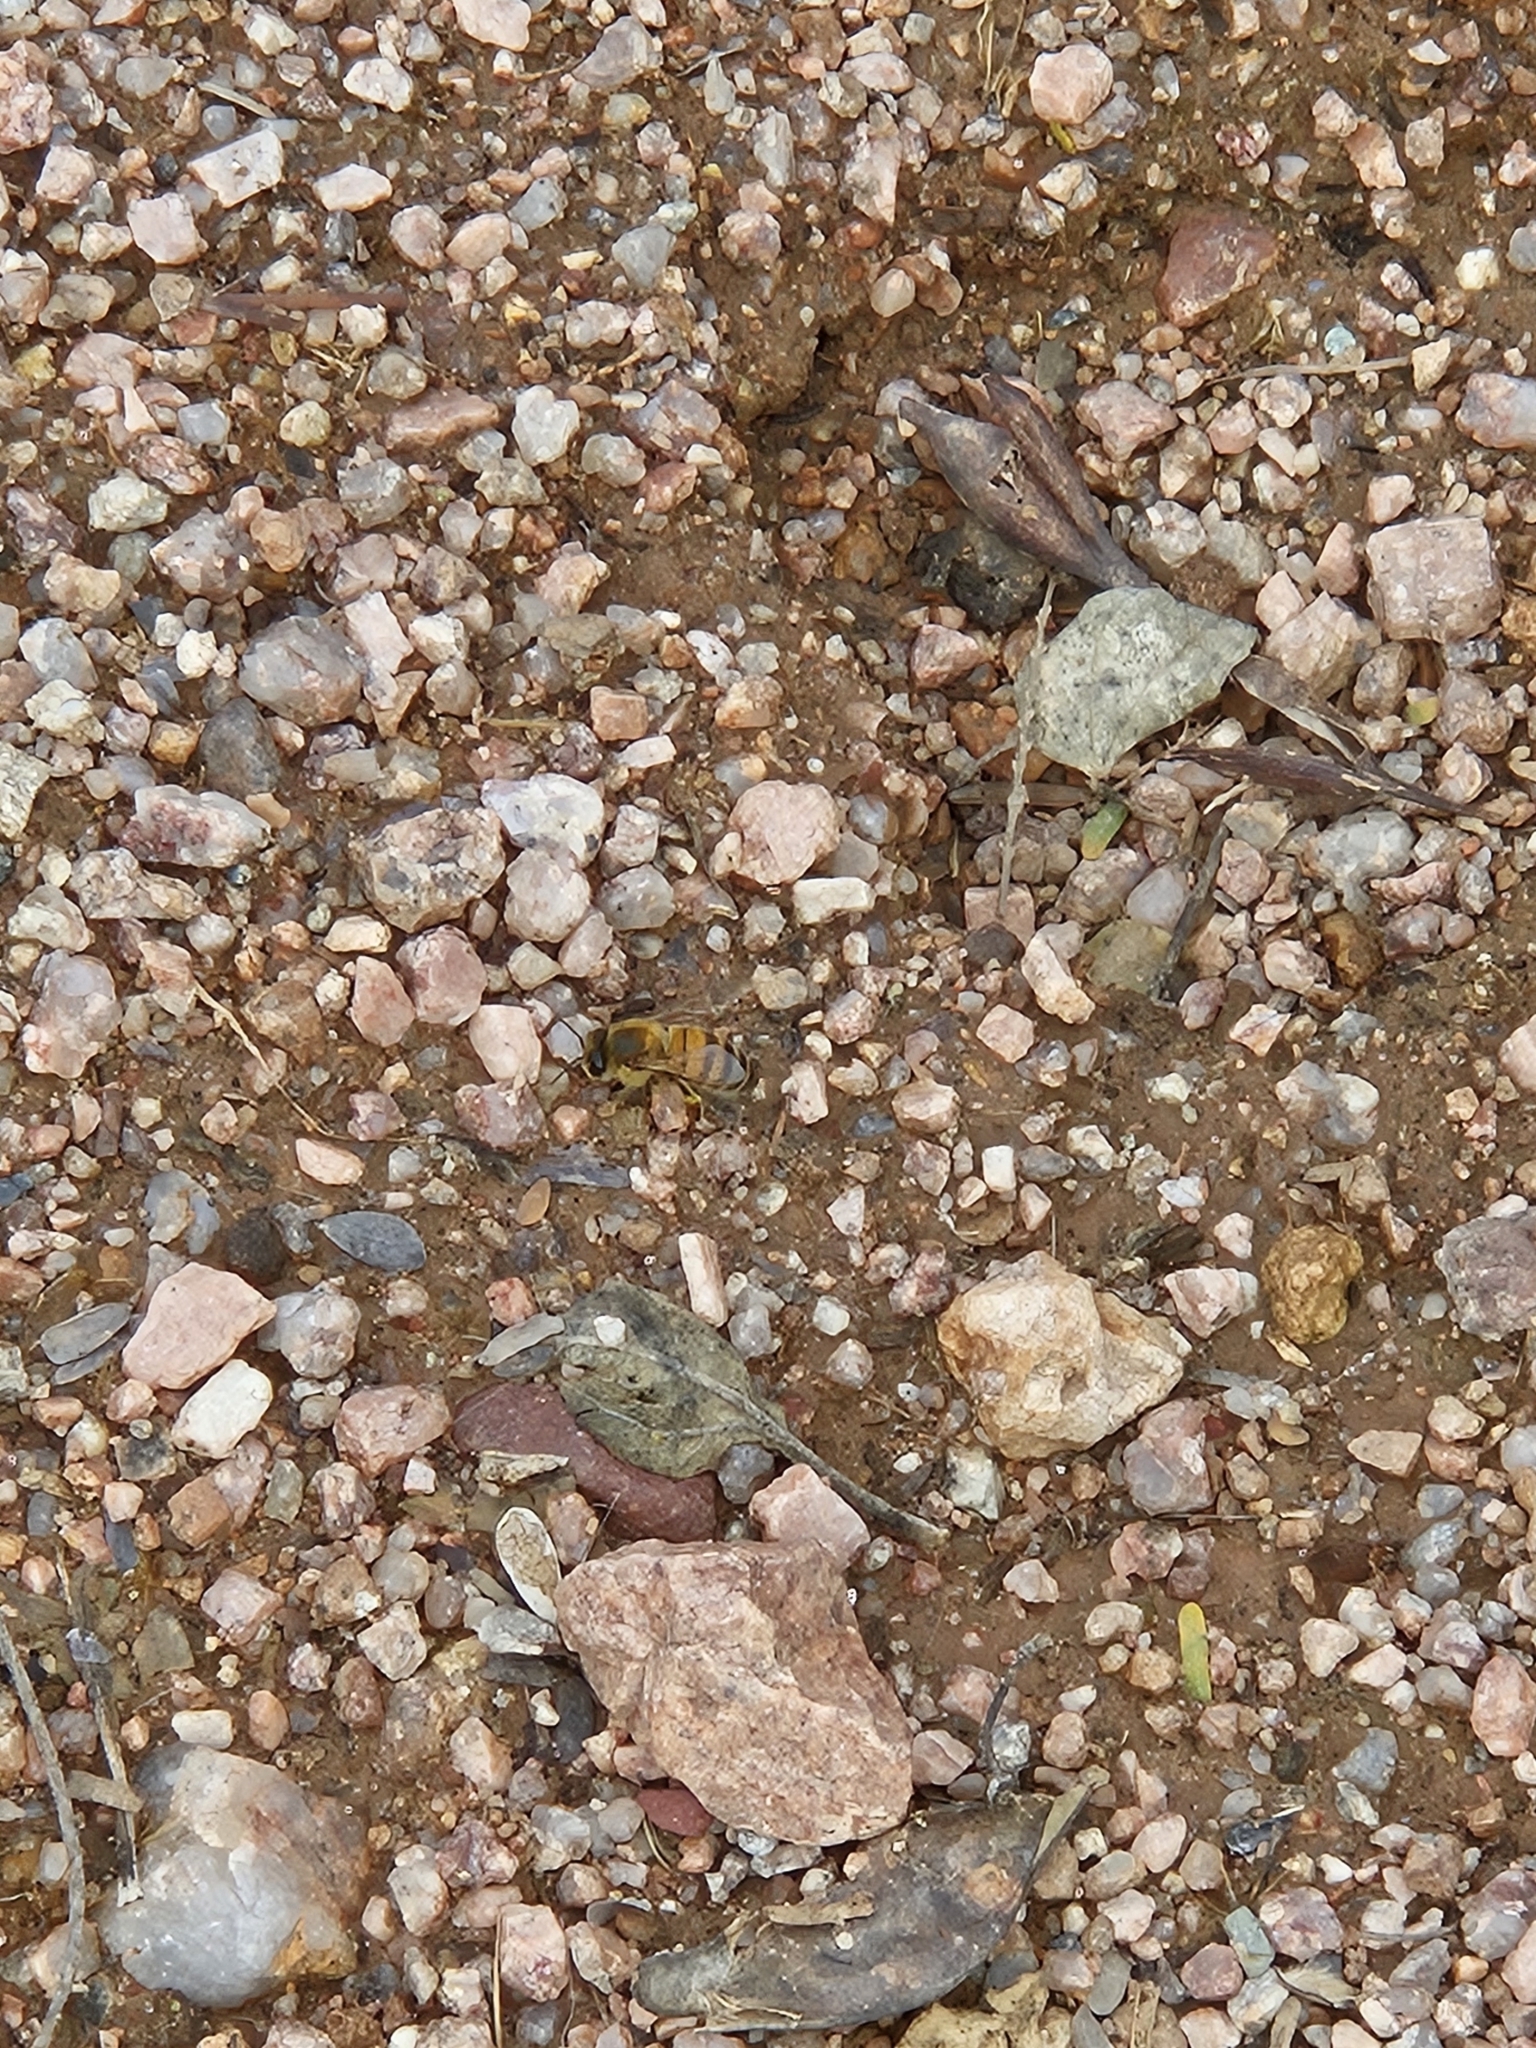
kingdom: Animalia
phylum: Arthropoda
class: Insecta
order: Hymenoptera
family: Apidae
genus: Apis
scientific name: Apis mellifera
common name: Honey bee
